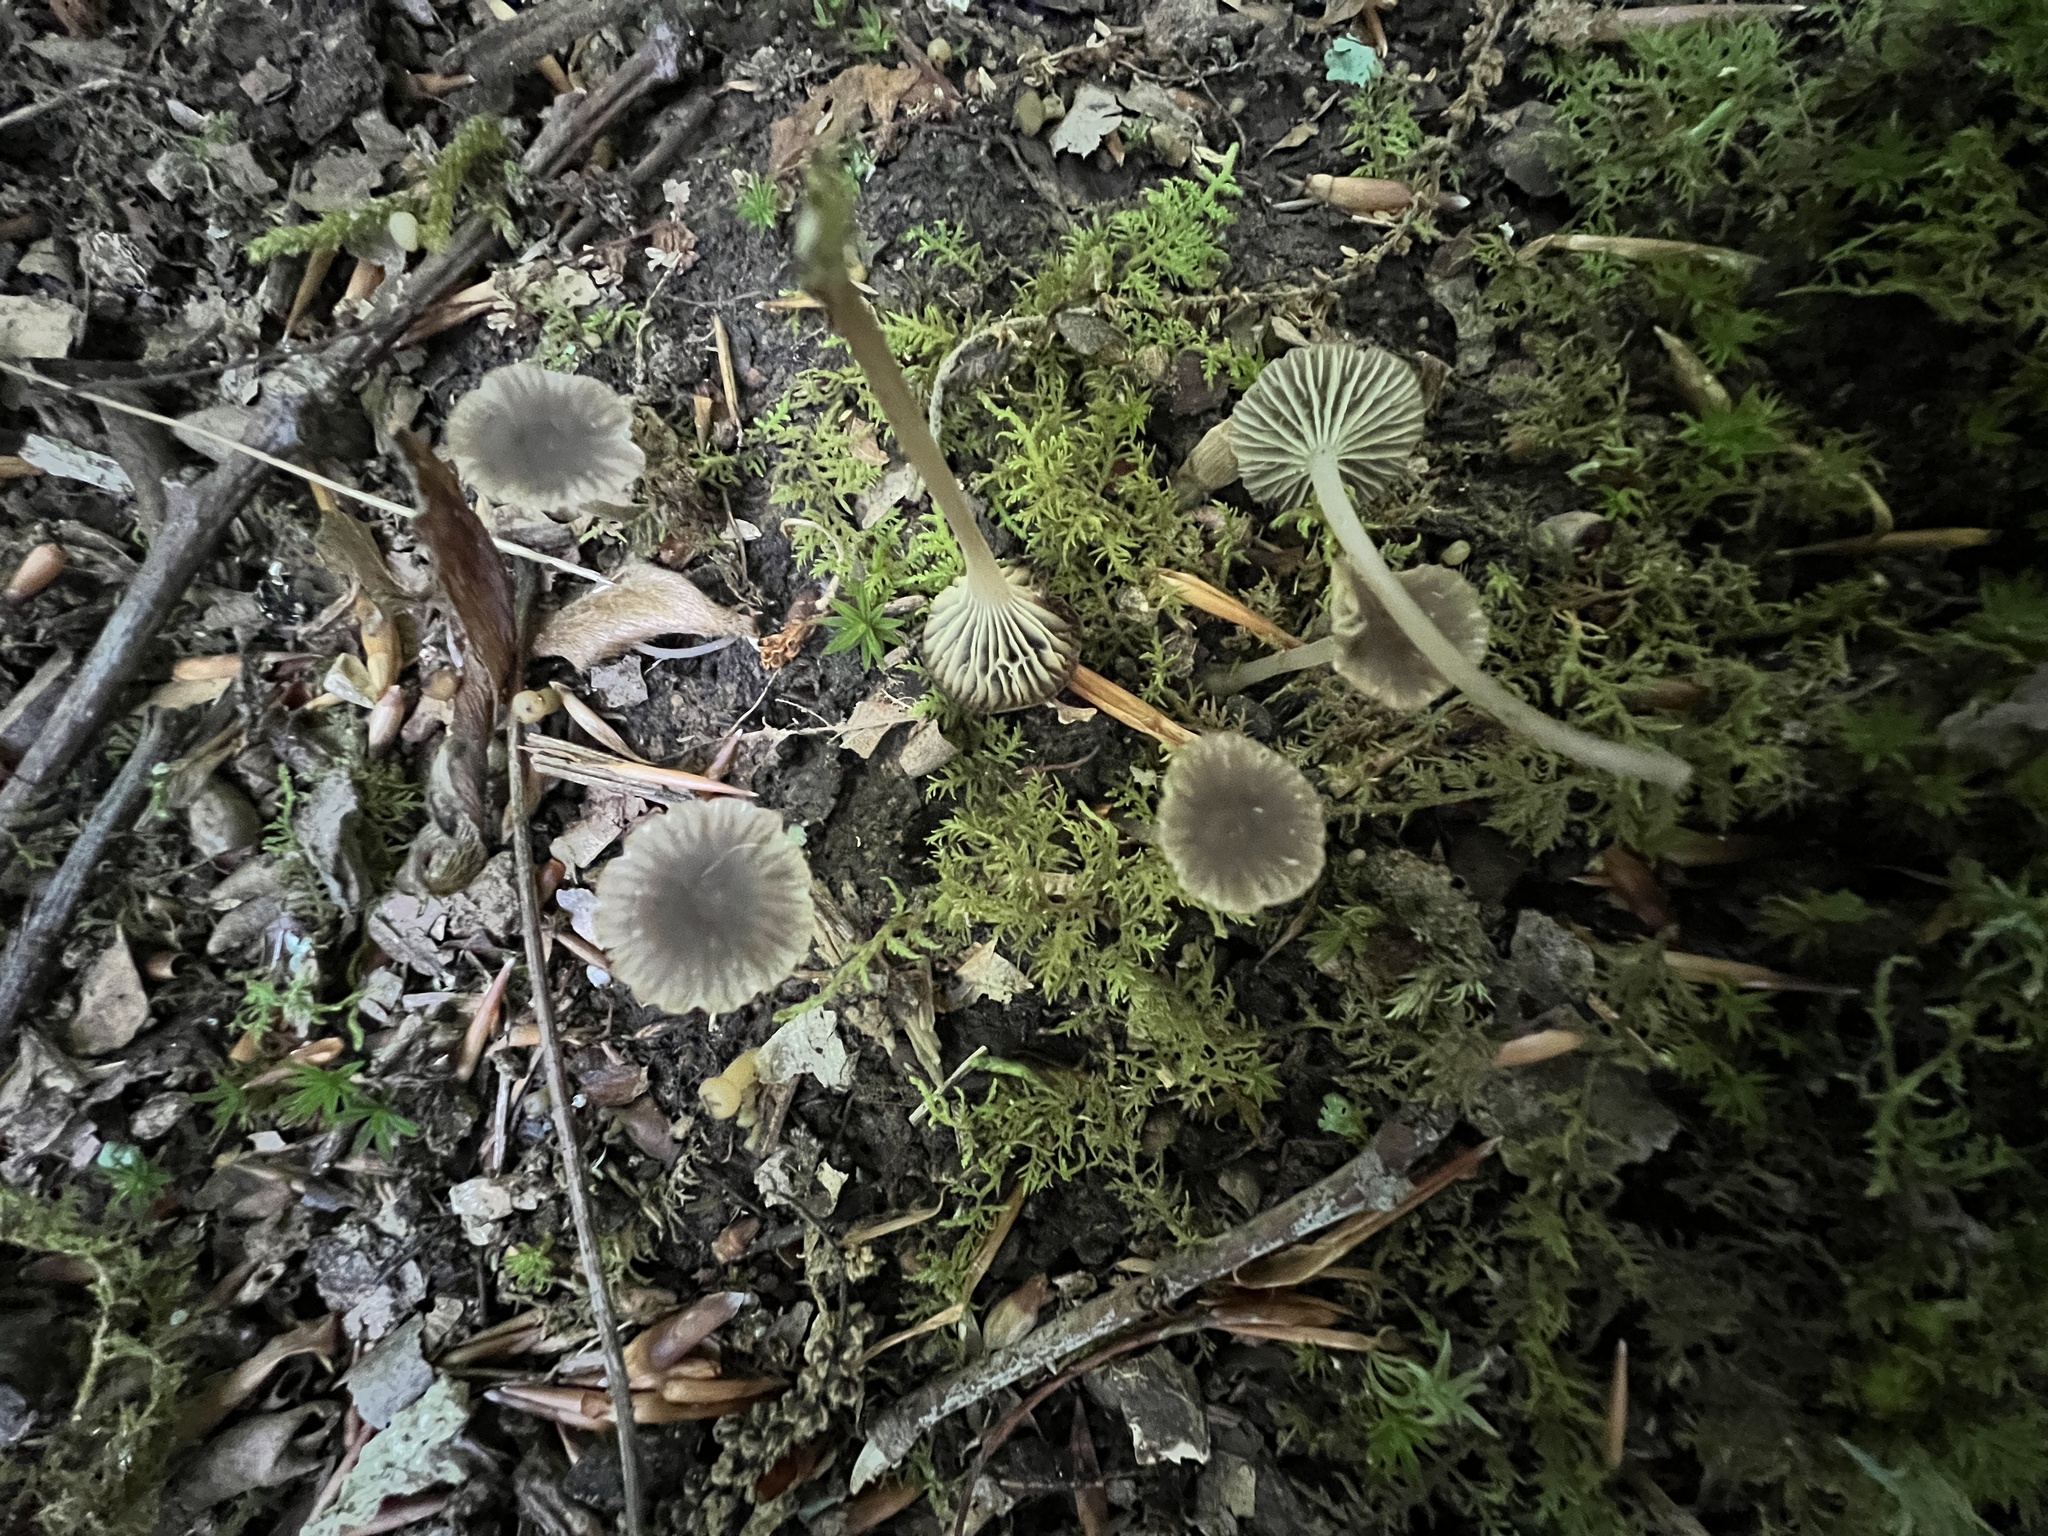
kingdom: Fungi
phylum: Basidiomycota
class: Agaricomycetes
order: Agaricales
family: Mycenaceae
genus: Hydropus
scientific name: Hydropus praedecurrens
